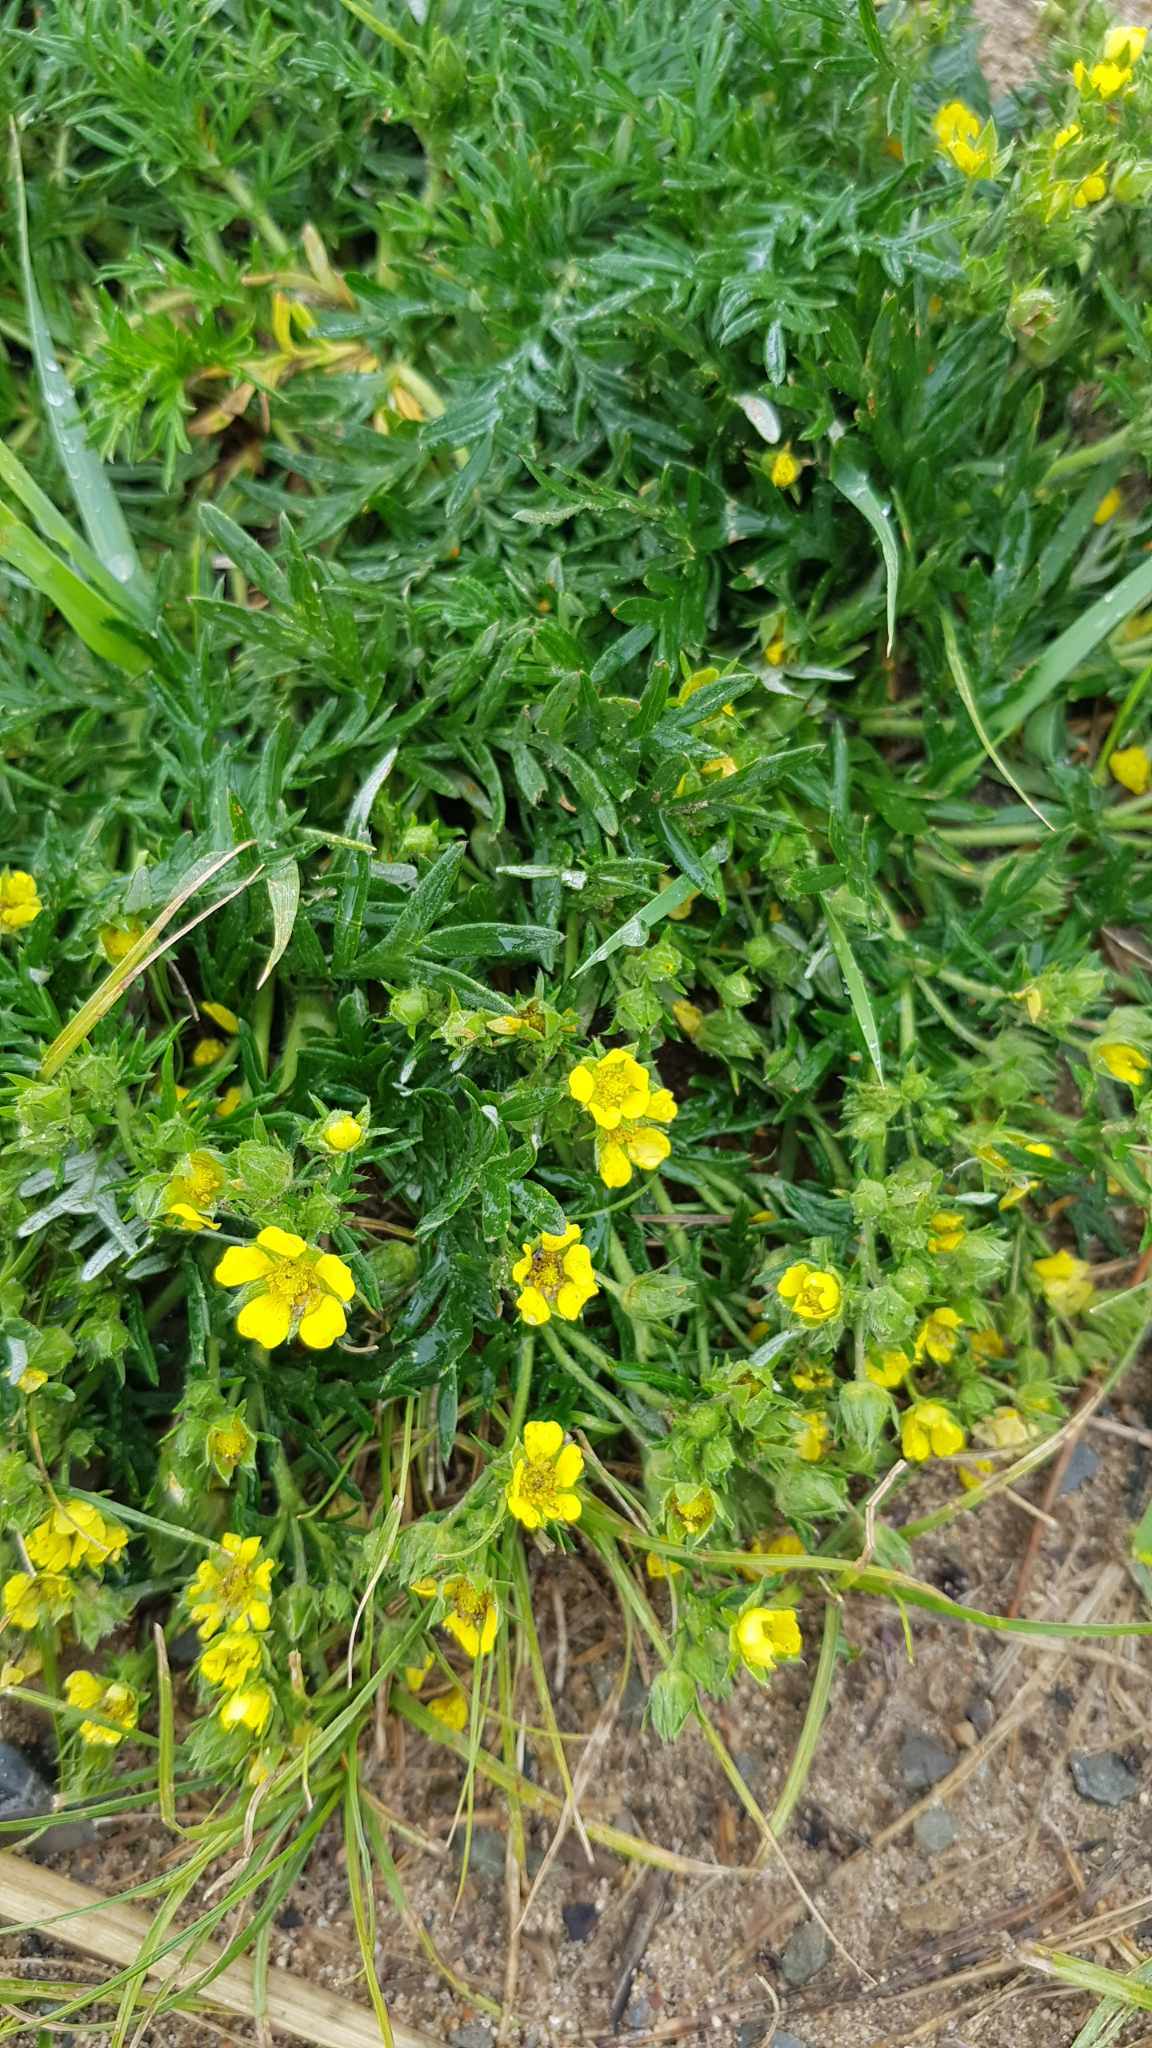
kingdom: Plantae
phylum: Tracheophyta
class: Magnoliopsida
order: Rosales
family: Rosaceae
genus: Potentilla
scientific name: Potentilla tergemina
